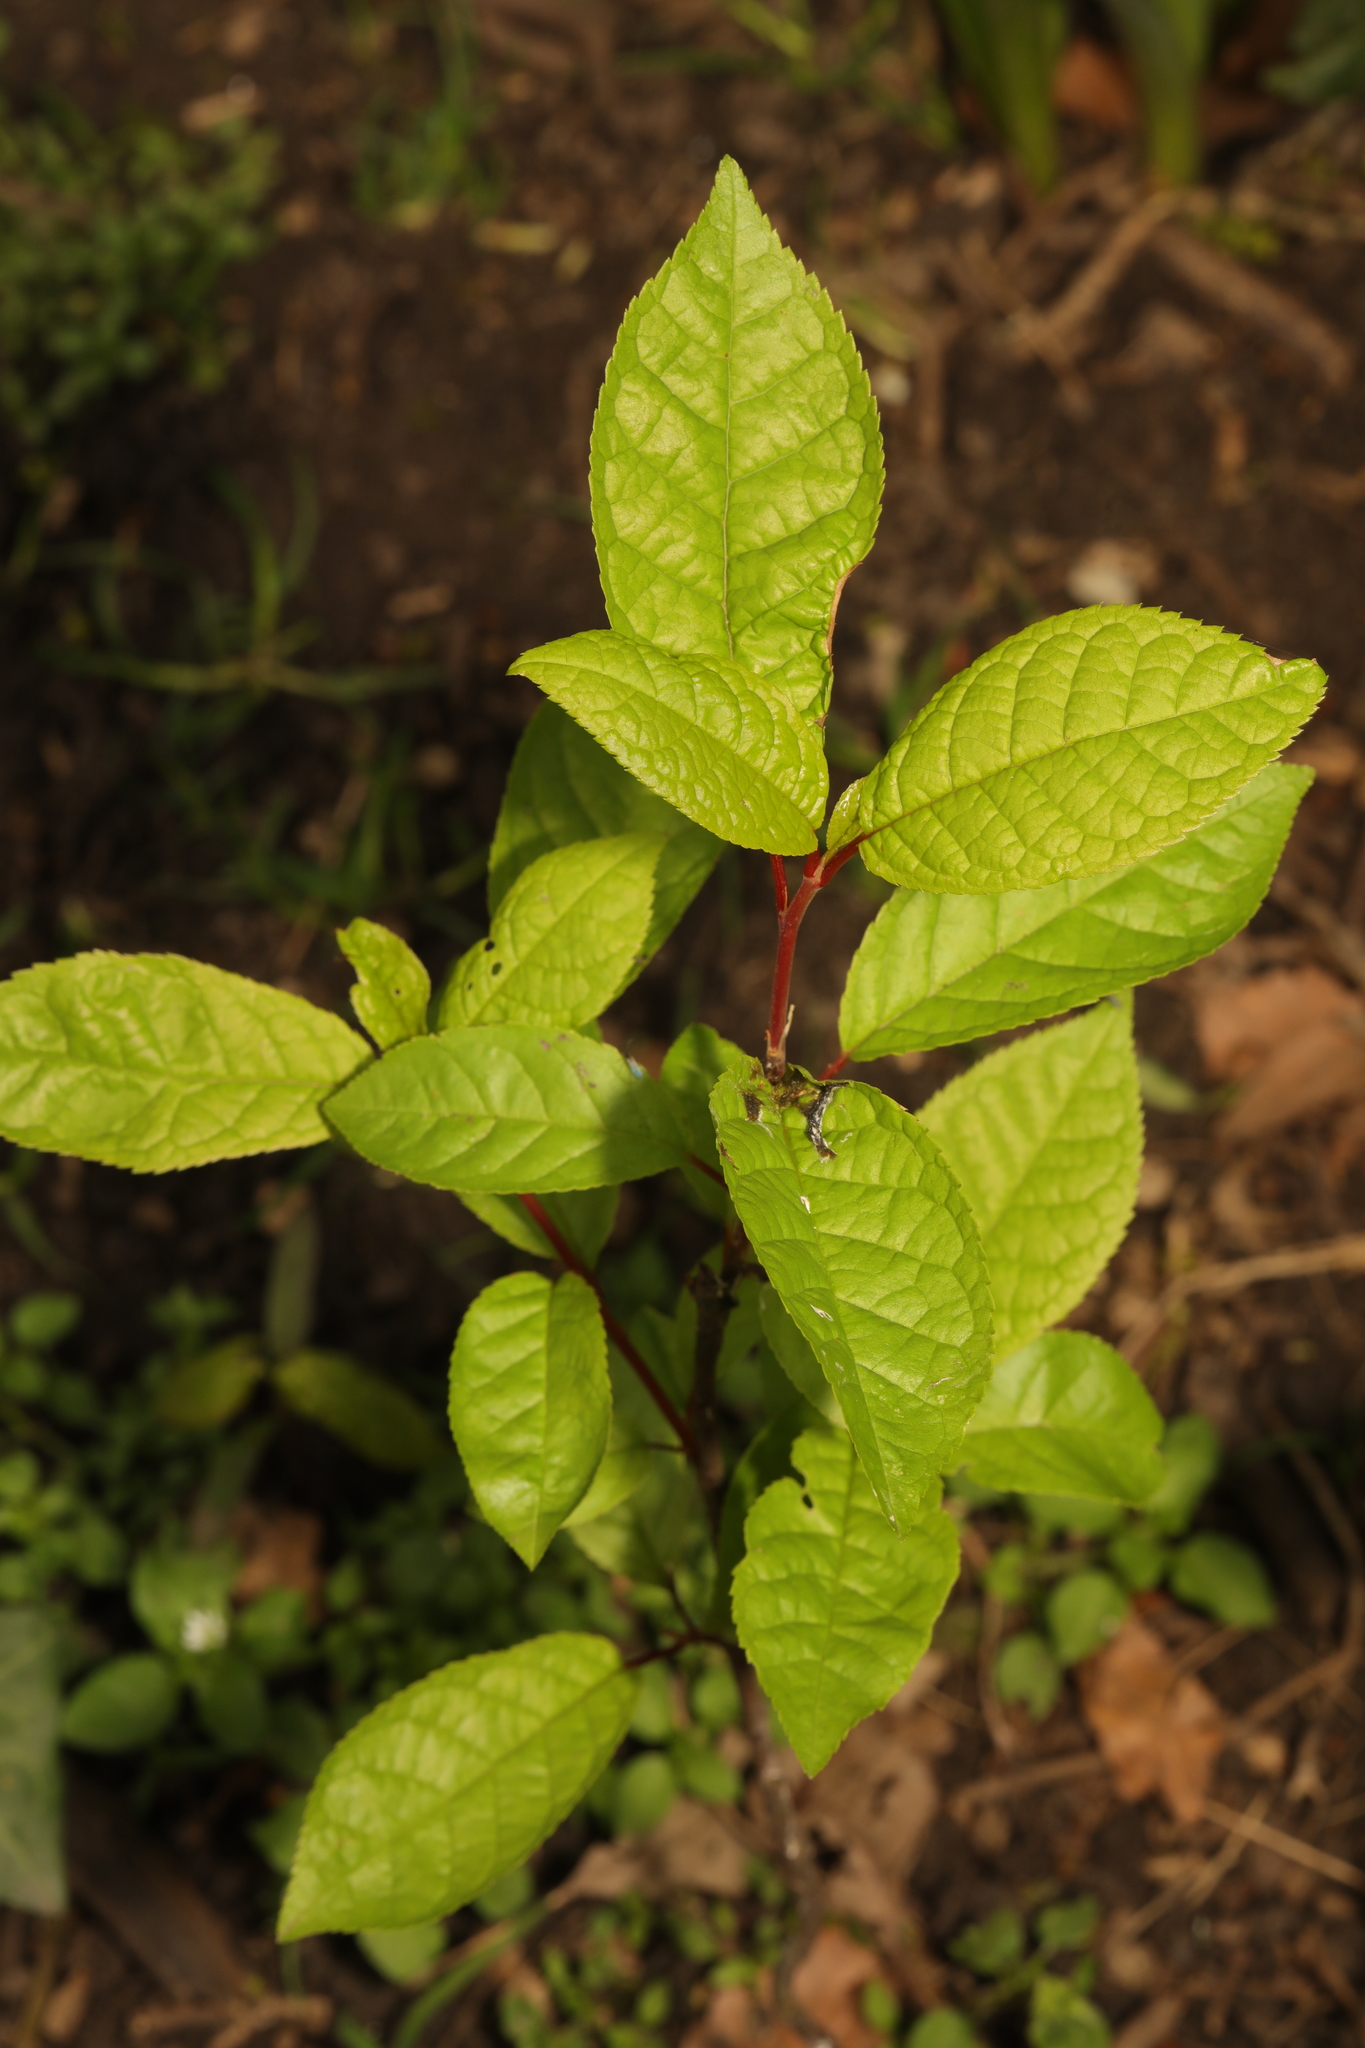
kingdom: Plantae
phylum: Tracheophyta
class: Magnoliopsida
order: Rosales
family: Rosaceae
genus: Prunus
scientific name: Prunus padus
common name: Bird cherry
